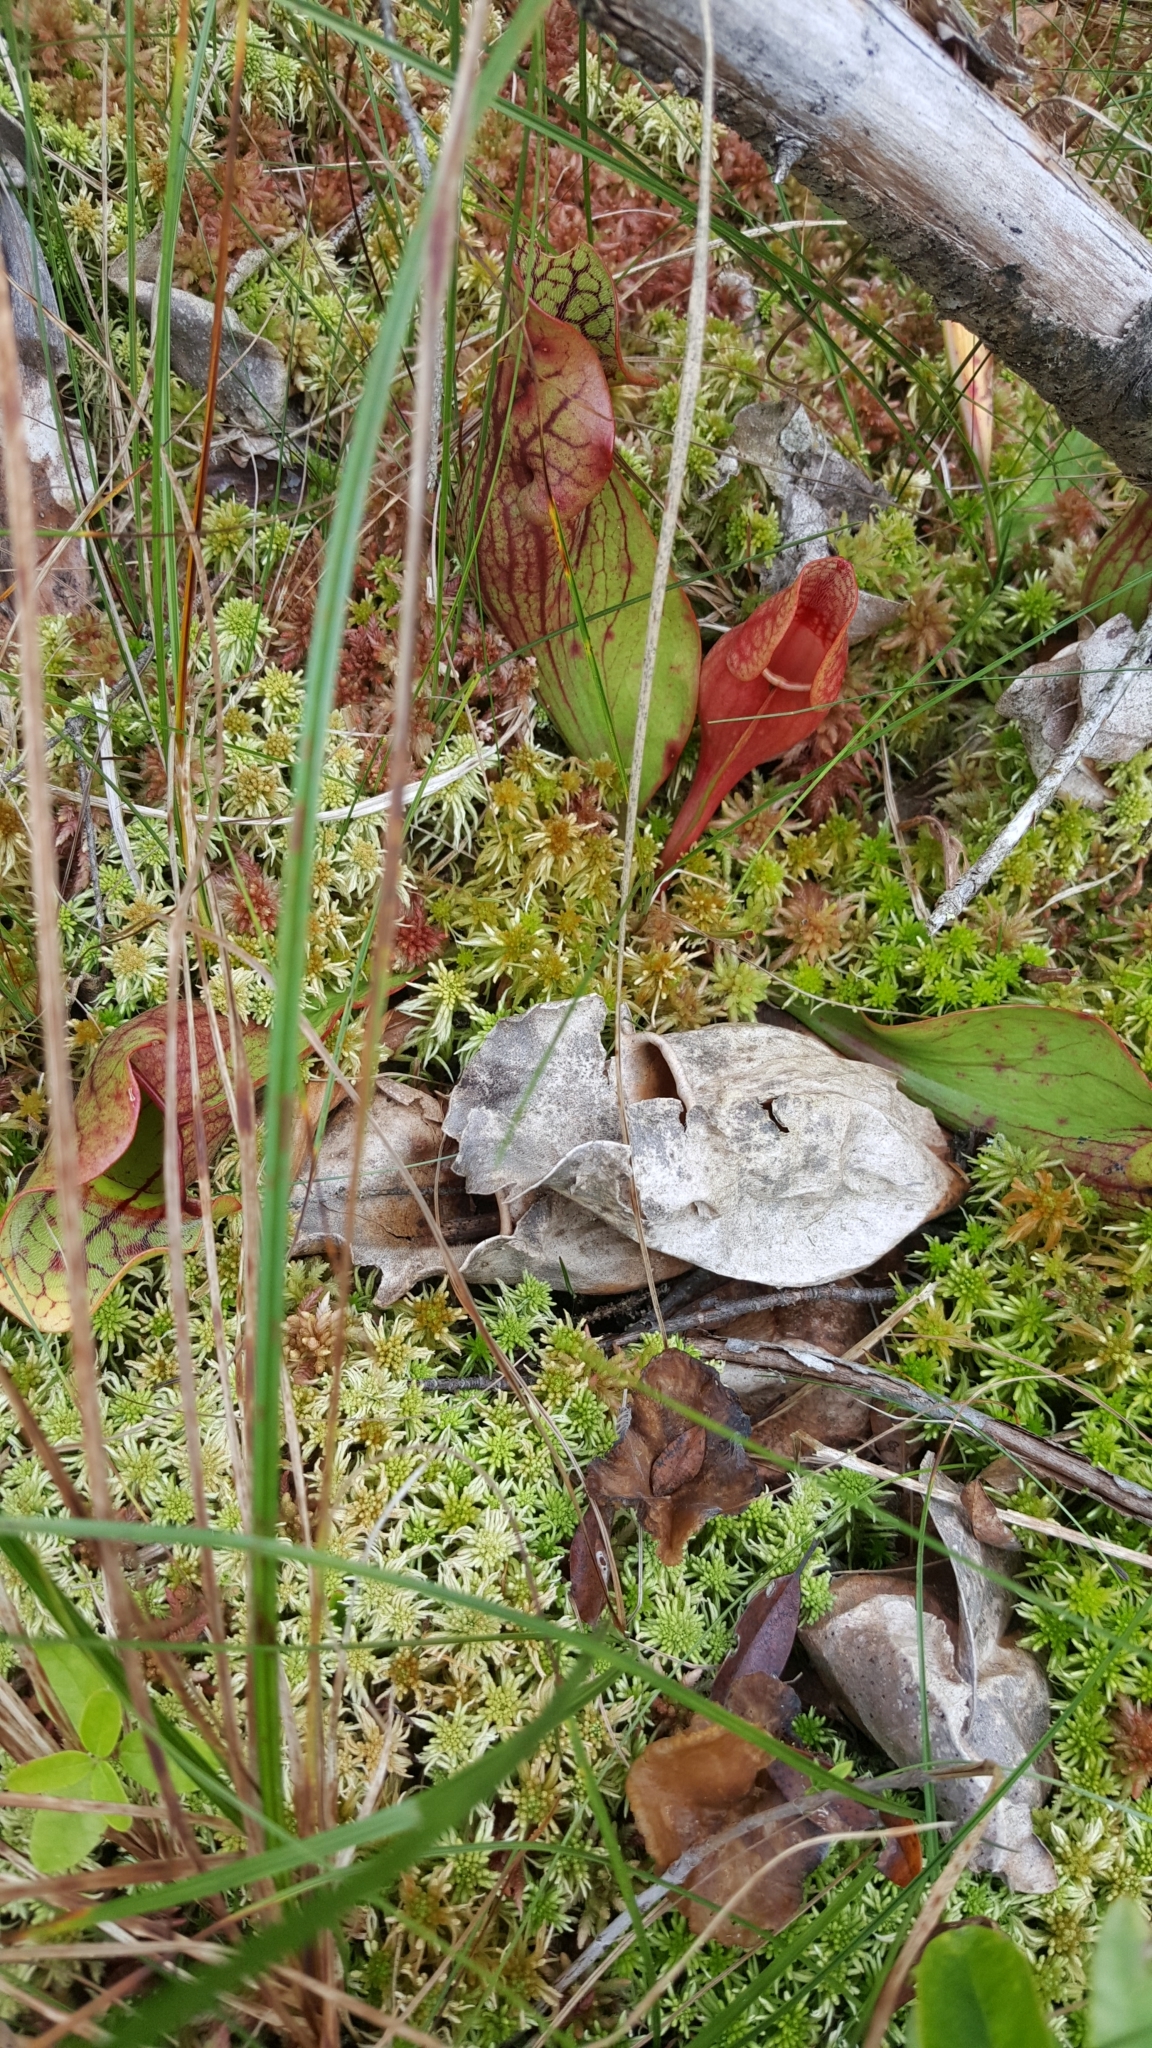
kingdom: Plantae
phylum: Tracheophyta
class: Magnoliopsida
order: Ericales
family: Sarraceniaceae
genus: Sarracenia
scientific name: Sarracenia purpurea
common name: Pitcherplant
